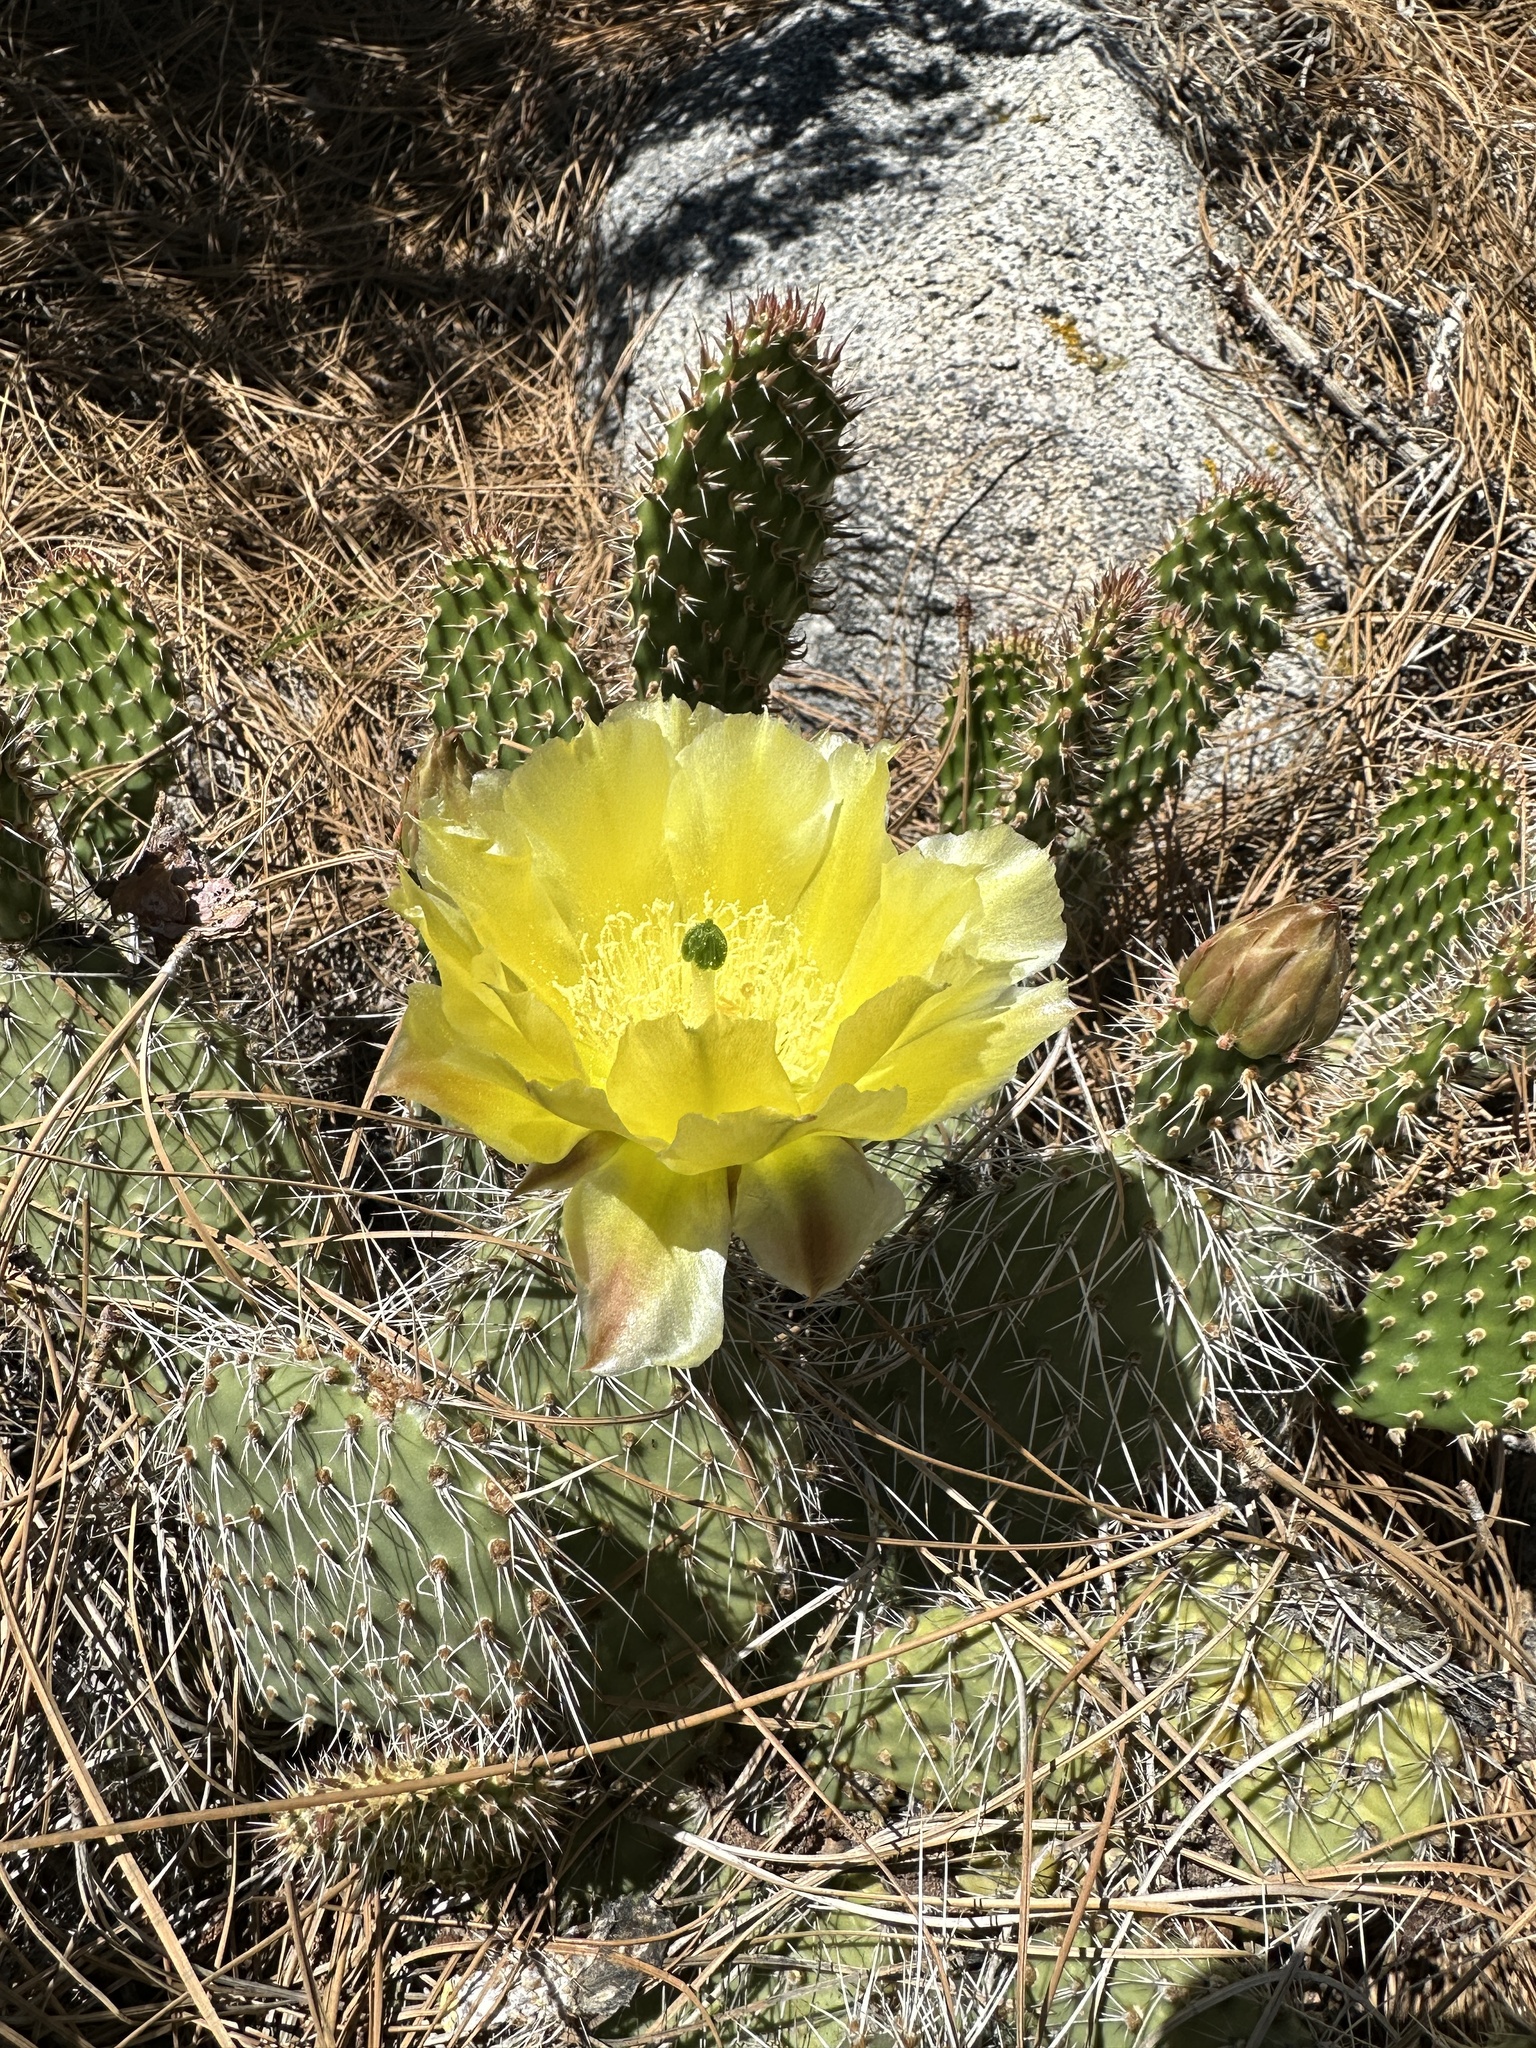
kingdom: Plantae
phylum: Tracheophyta
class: Magnoliopsida
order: Caryophyllales
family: Cactaceae
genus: Opuntia
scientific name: Opuntia polyacantha
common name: Plains prickly-pear
